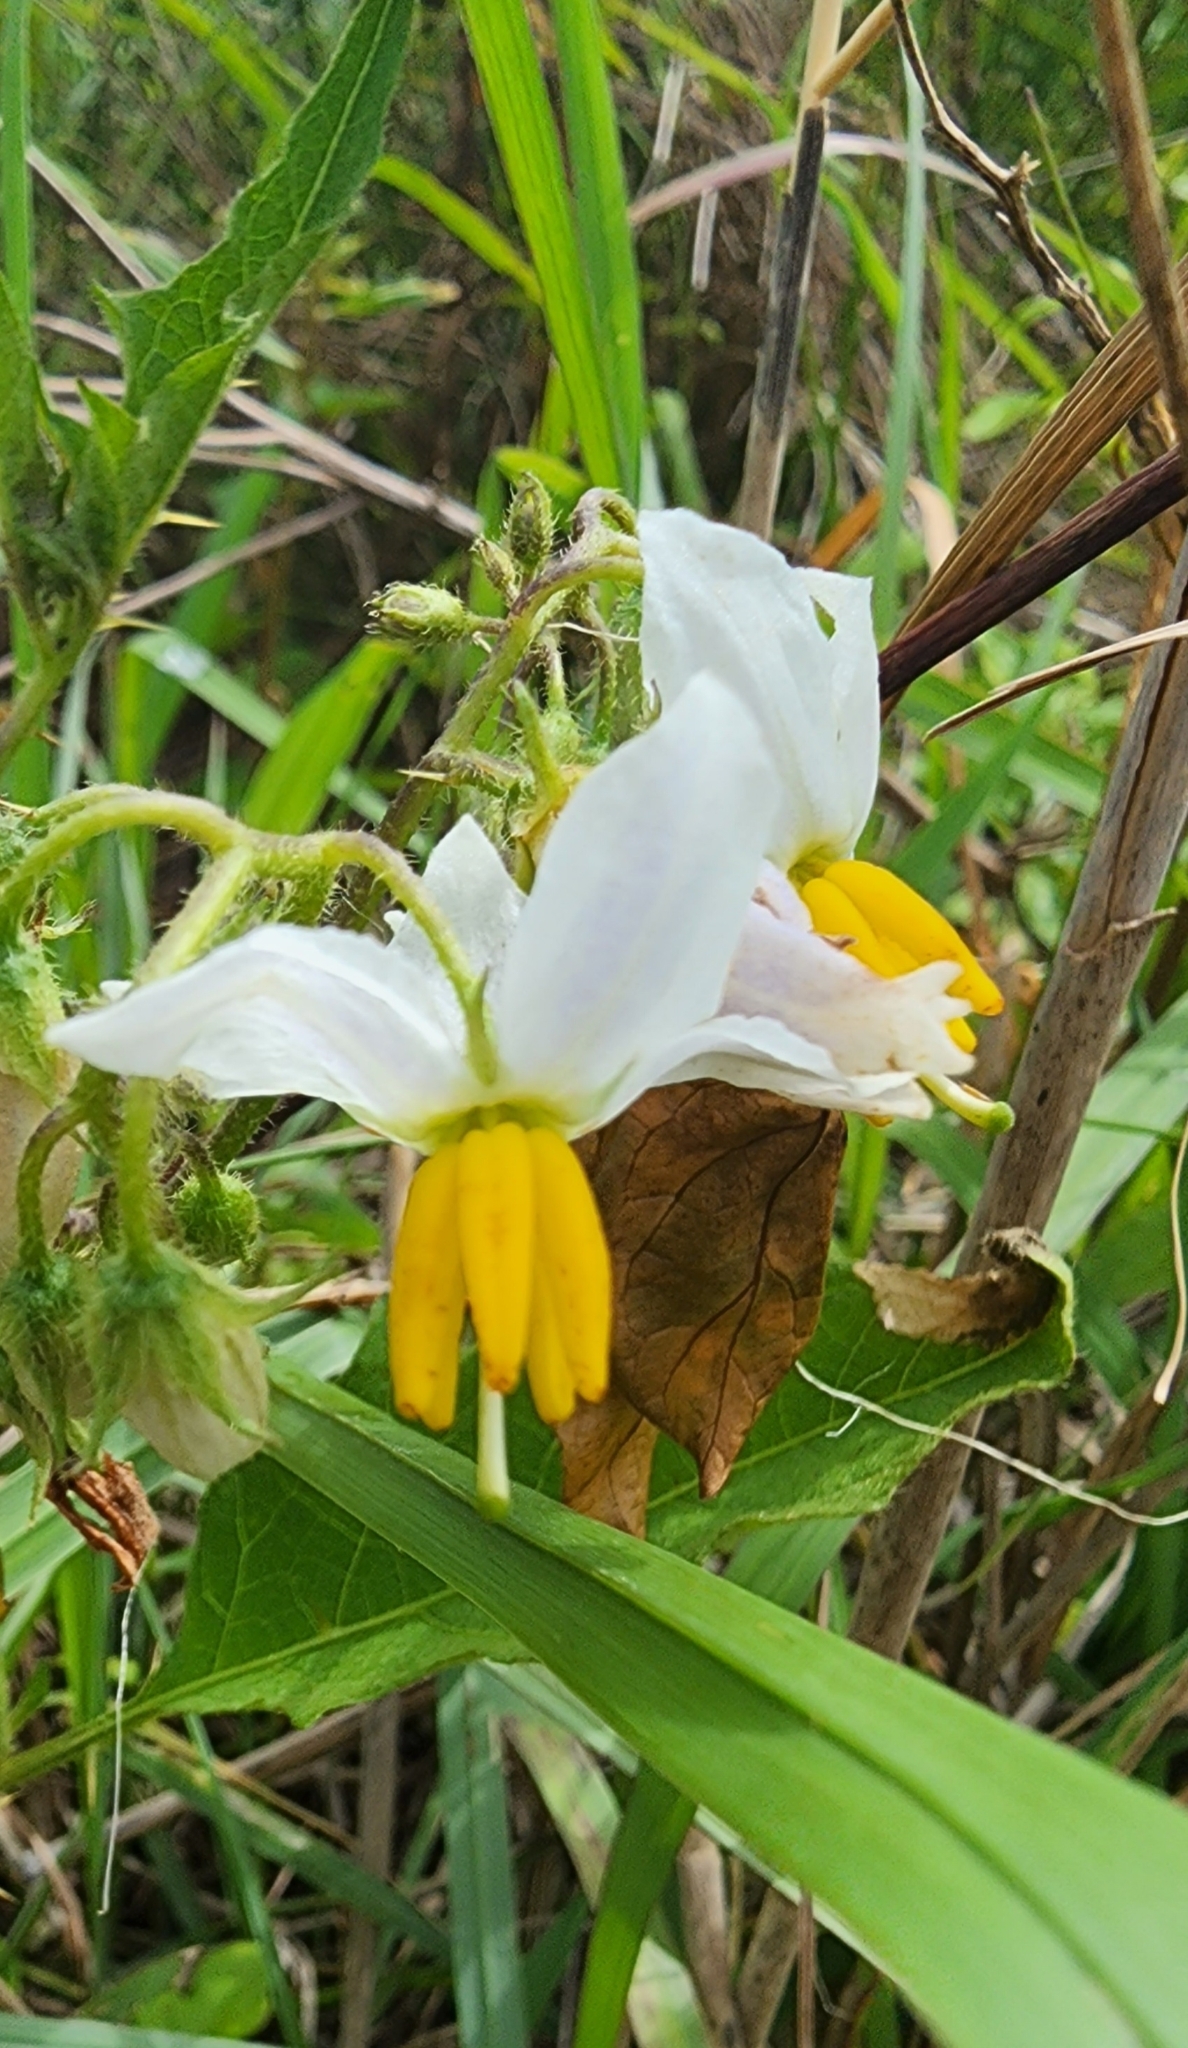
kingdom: Plantae
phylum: Tracheophyta
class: Magnoliopsida
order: Solanales
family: Solanaceae
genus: Solanum
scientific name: Solanum carolinense
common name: Horse-nettle
